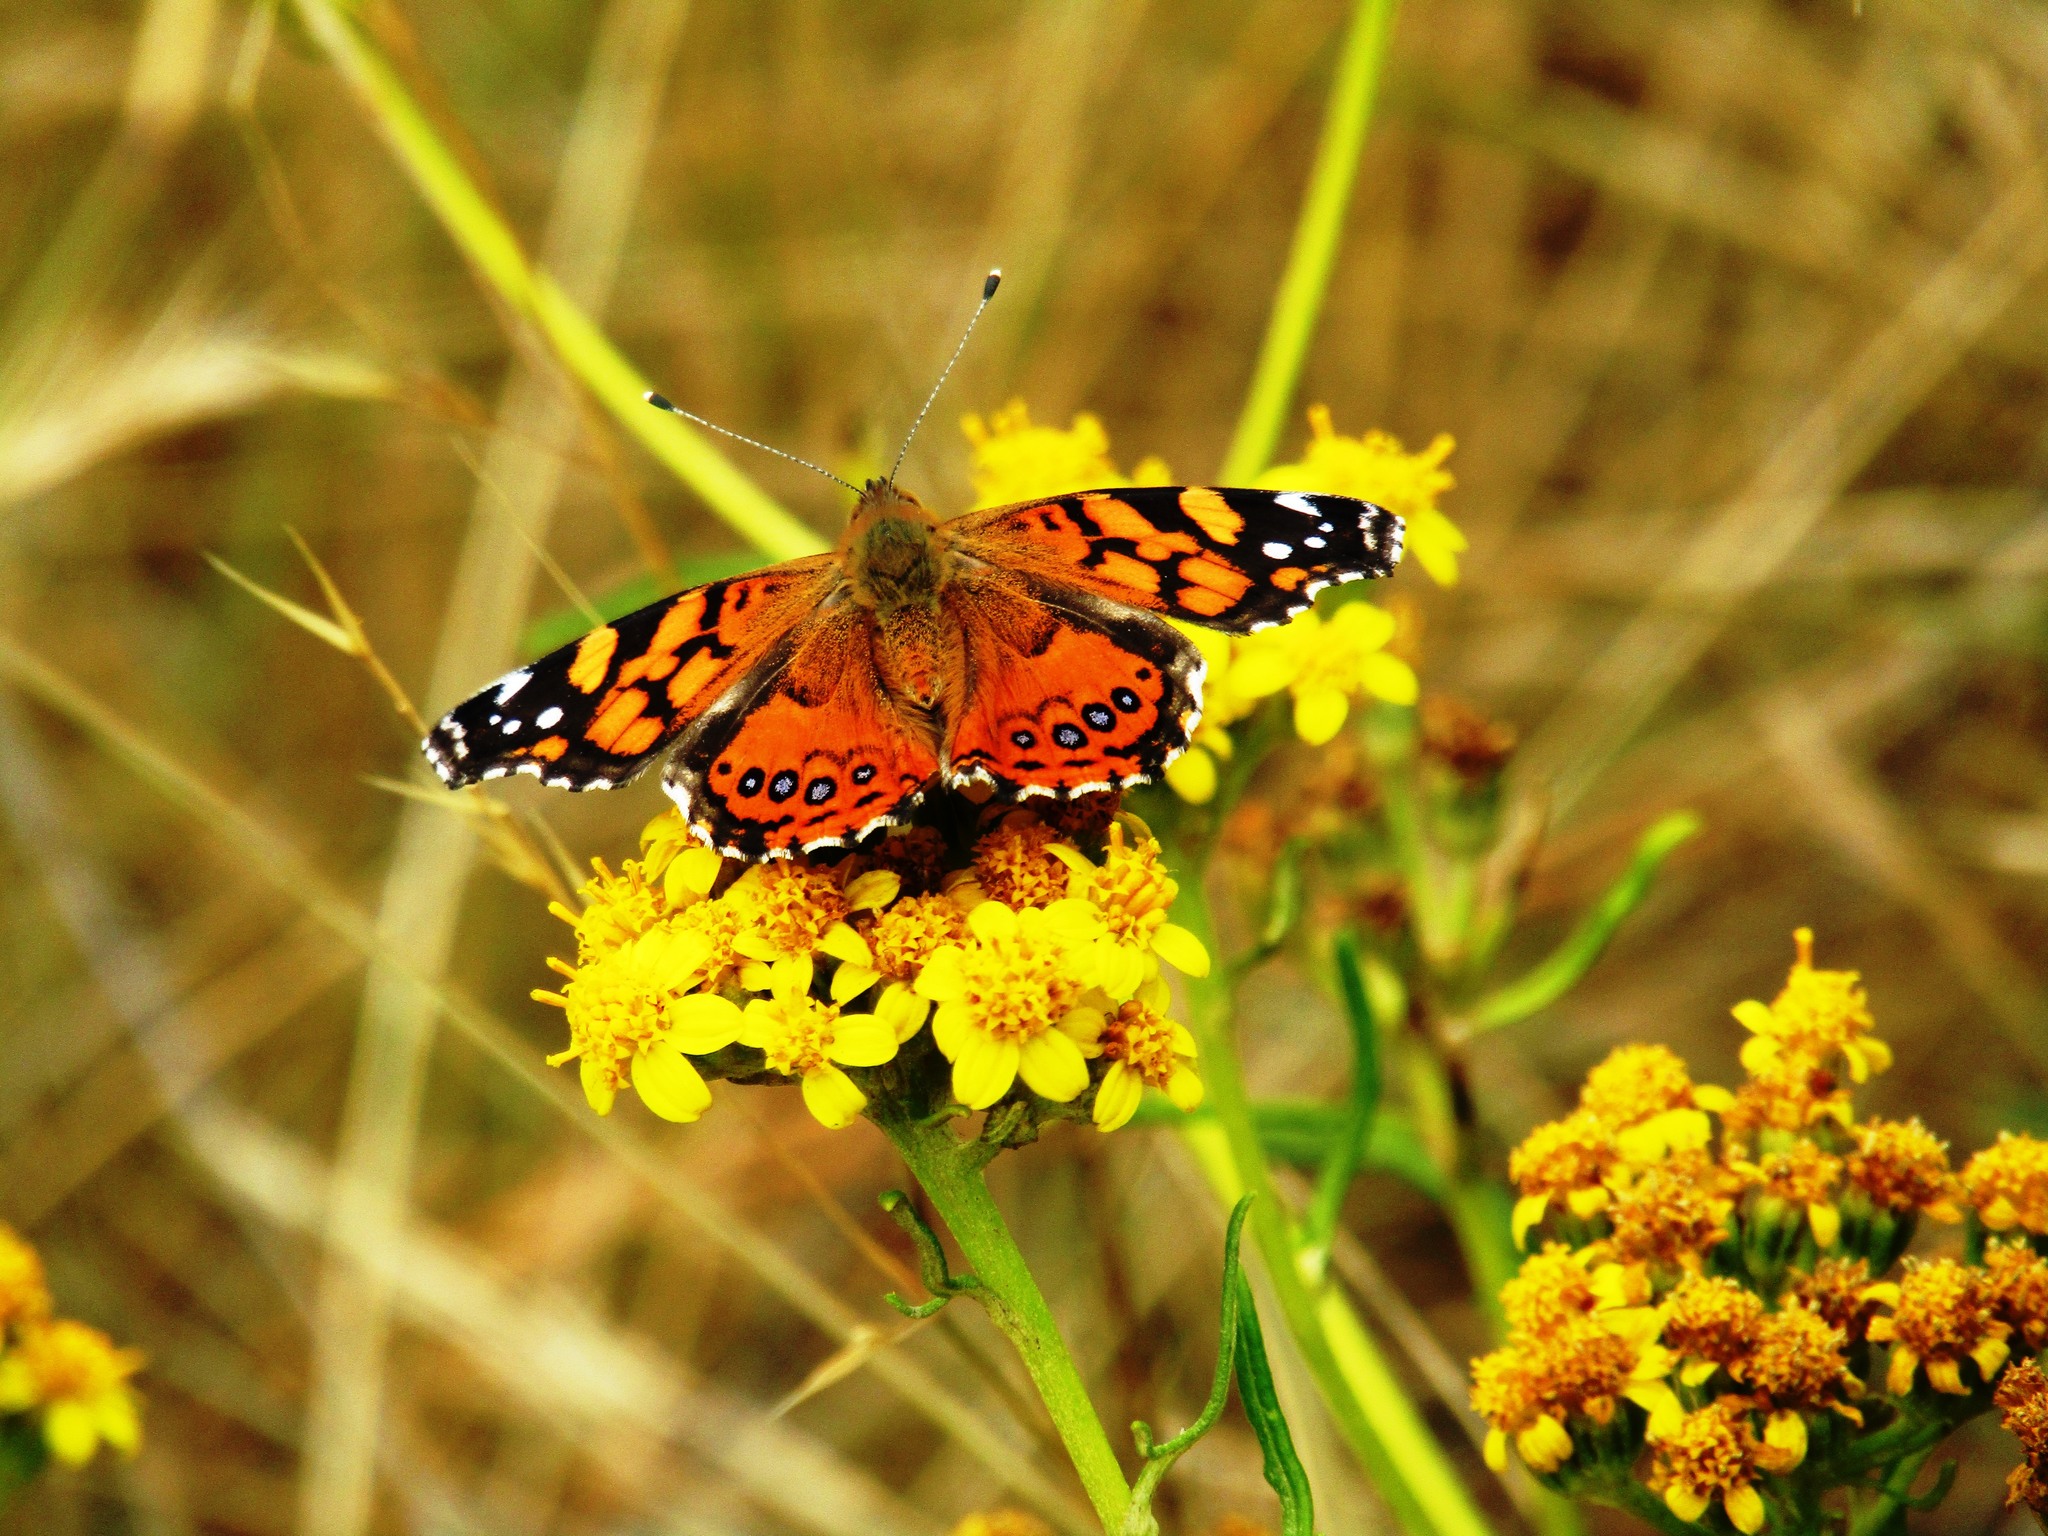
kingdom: Animalia
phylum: Arthropoda
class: Insecta
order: Lepidoptera
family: Nymphalidae
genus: Vanessa
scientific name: Vanessa annabella
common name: West coast lady
